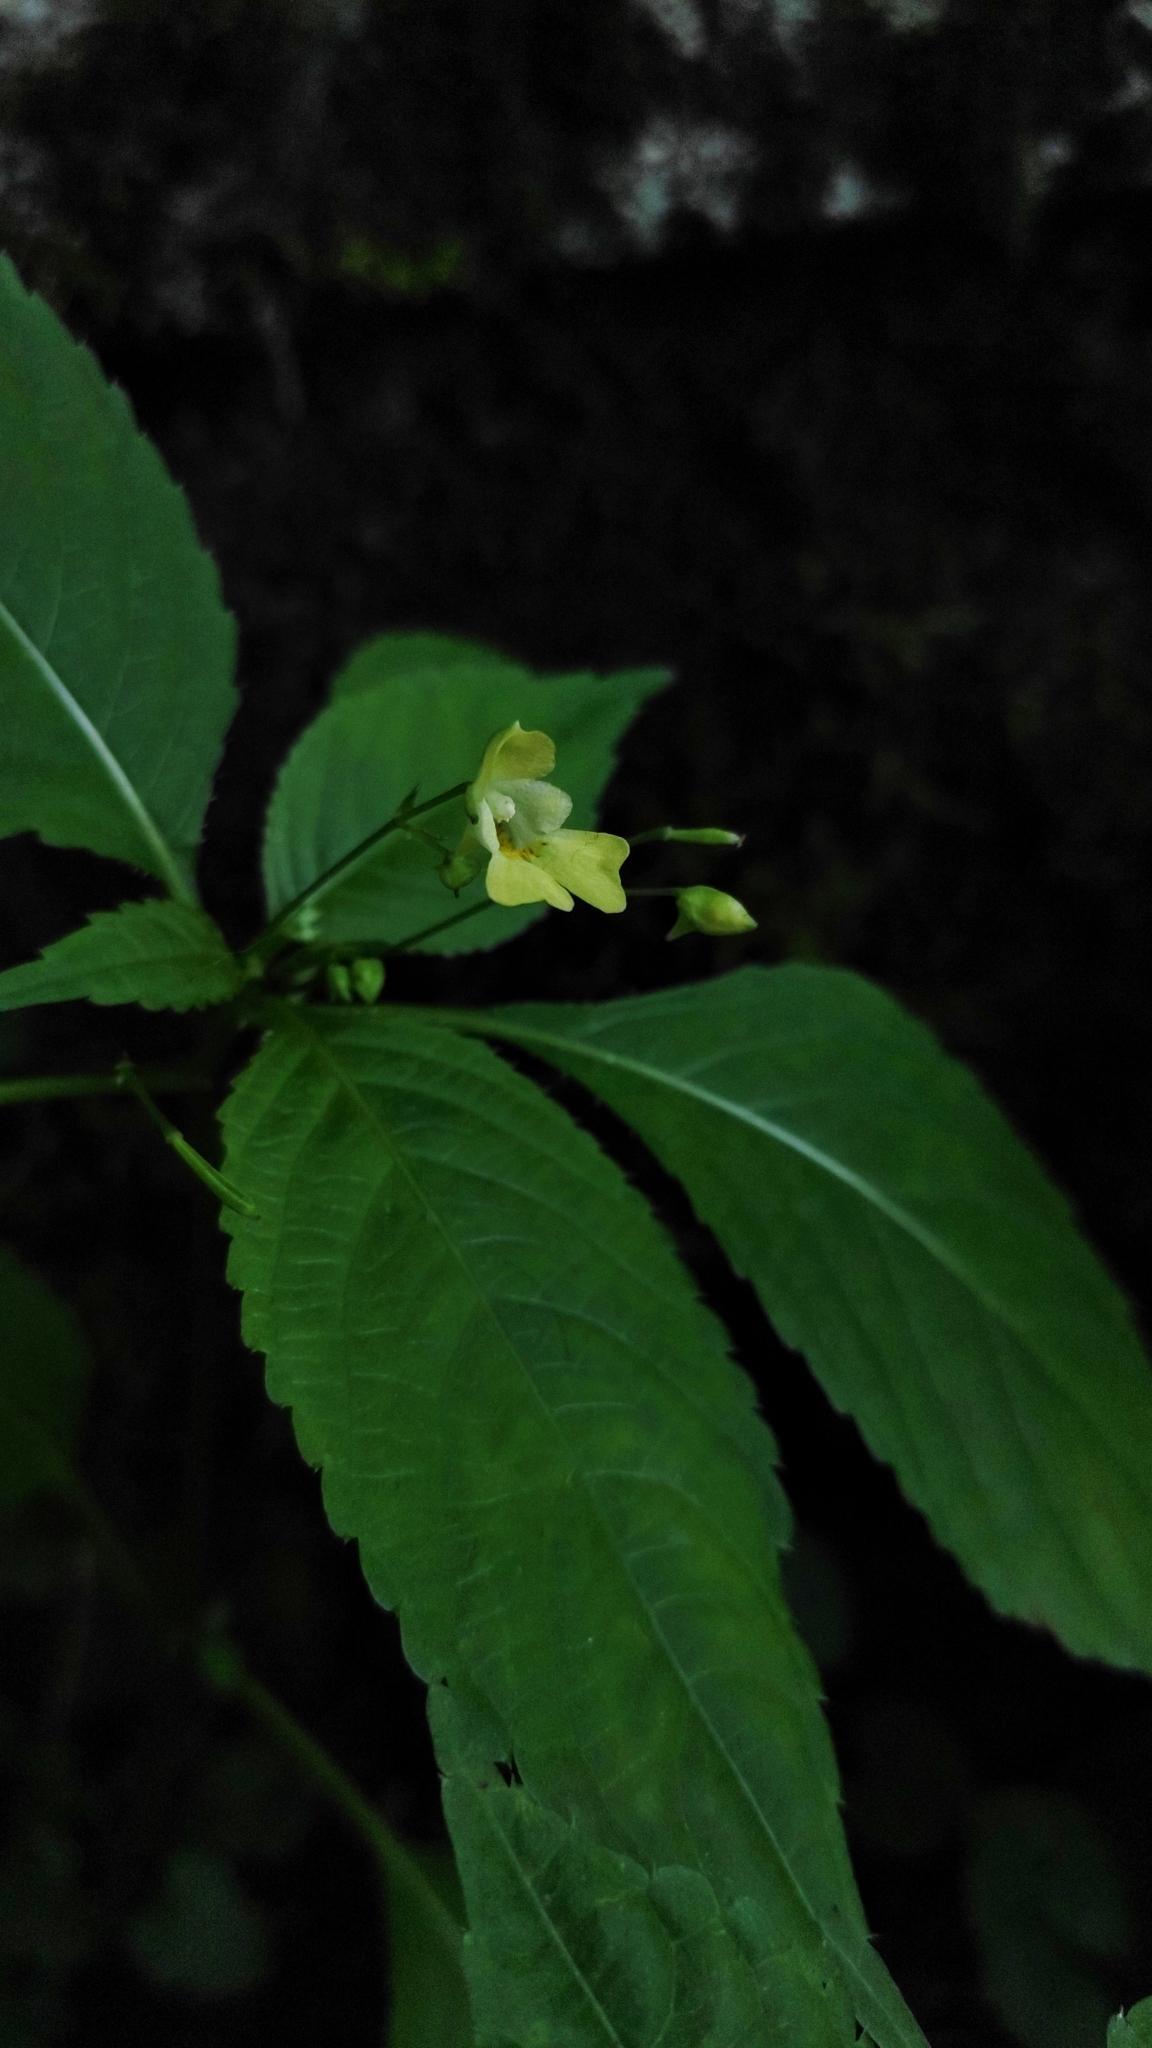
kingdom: Plantae
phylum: Tracheophyta
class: Magnoliopsida
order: Ericales
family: Balsaminaceae
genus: Impatiens
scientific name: Impatiens parviflora
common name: Small balsam
